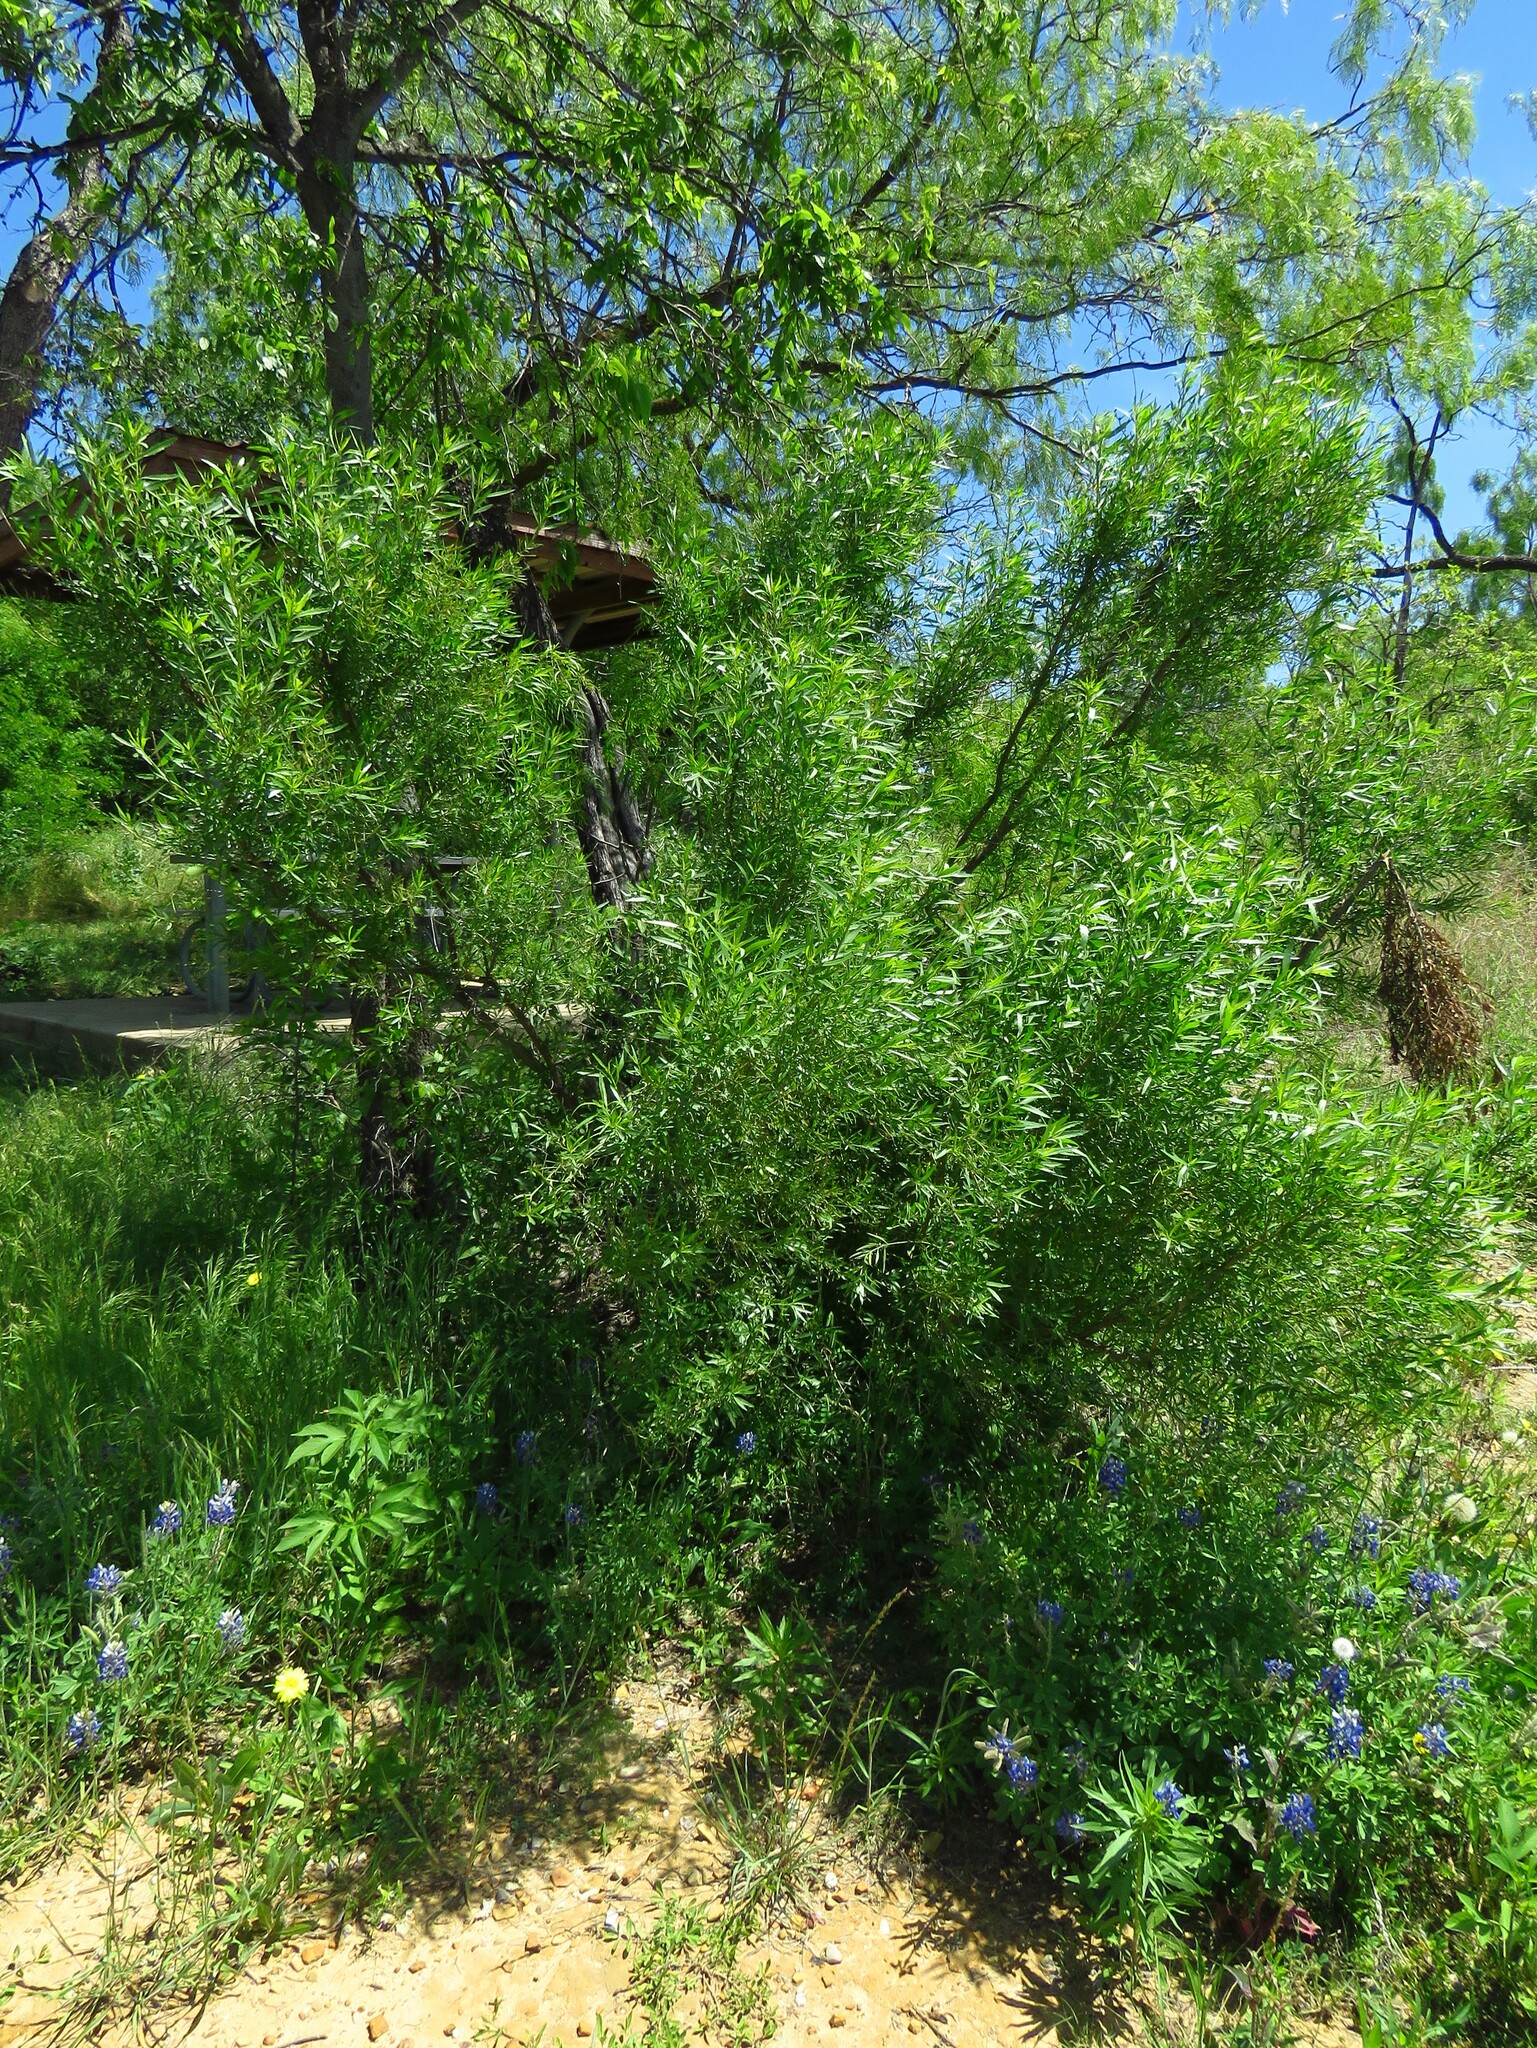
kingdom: Plantae
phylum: Tracheophyta
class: Magnoliopsida
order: Asterales
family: Asteraceae
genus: Baccharis
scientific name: Baccharis neglecta
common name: Roosevelt-weed
